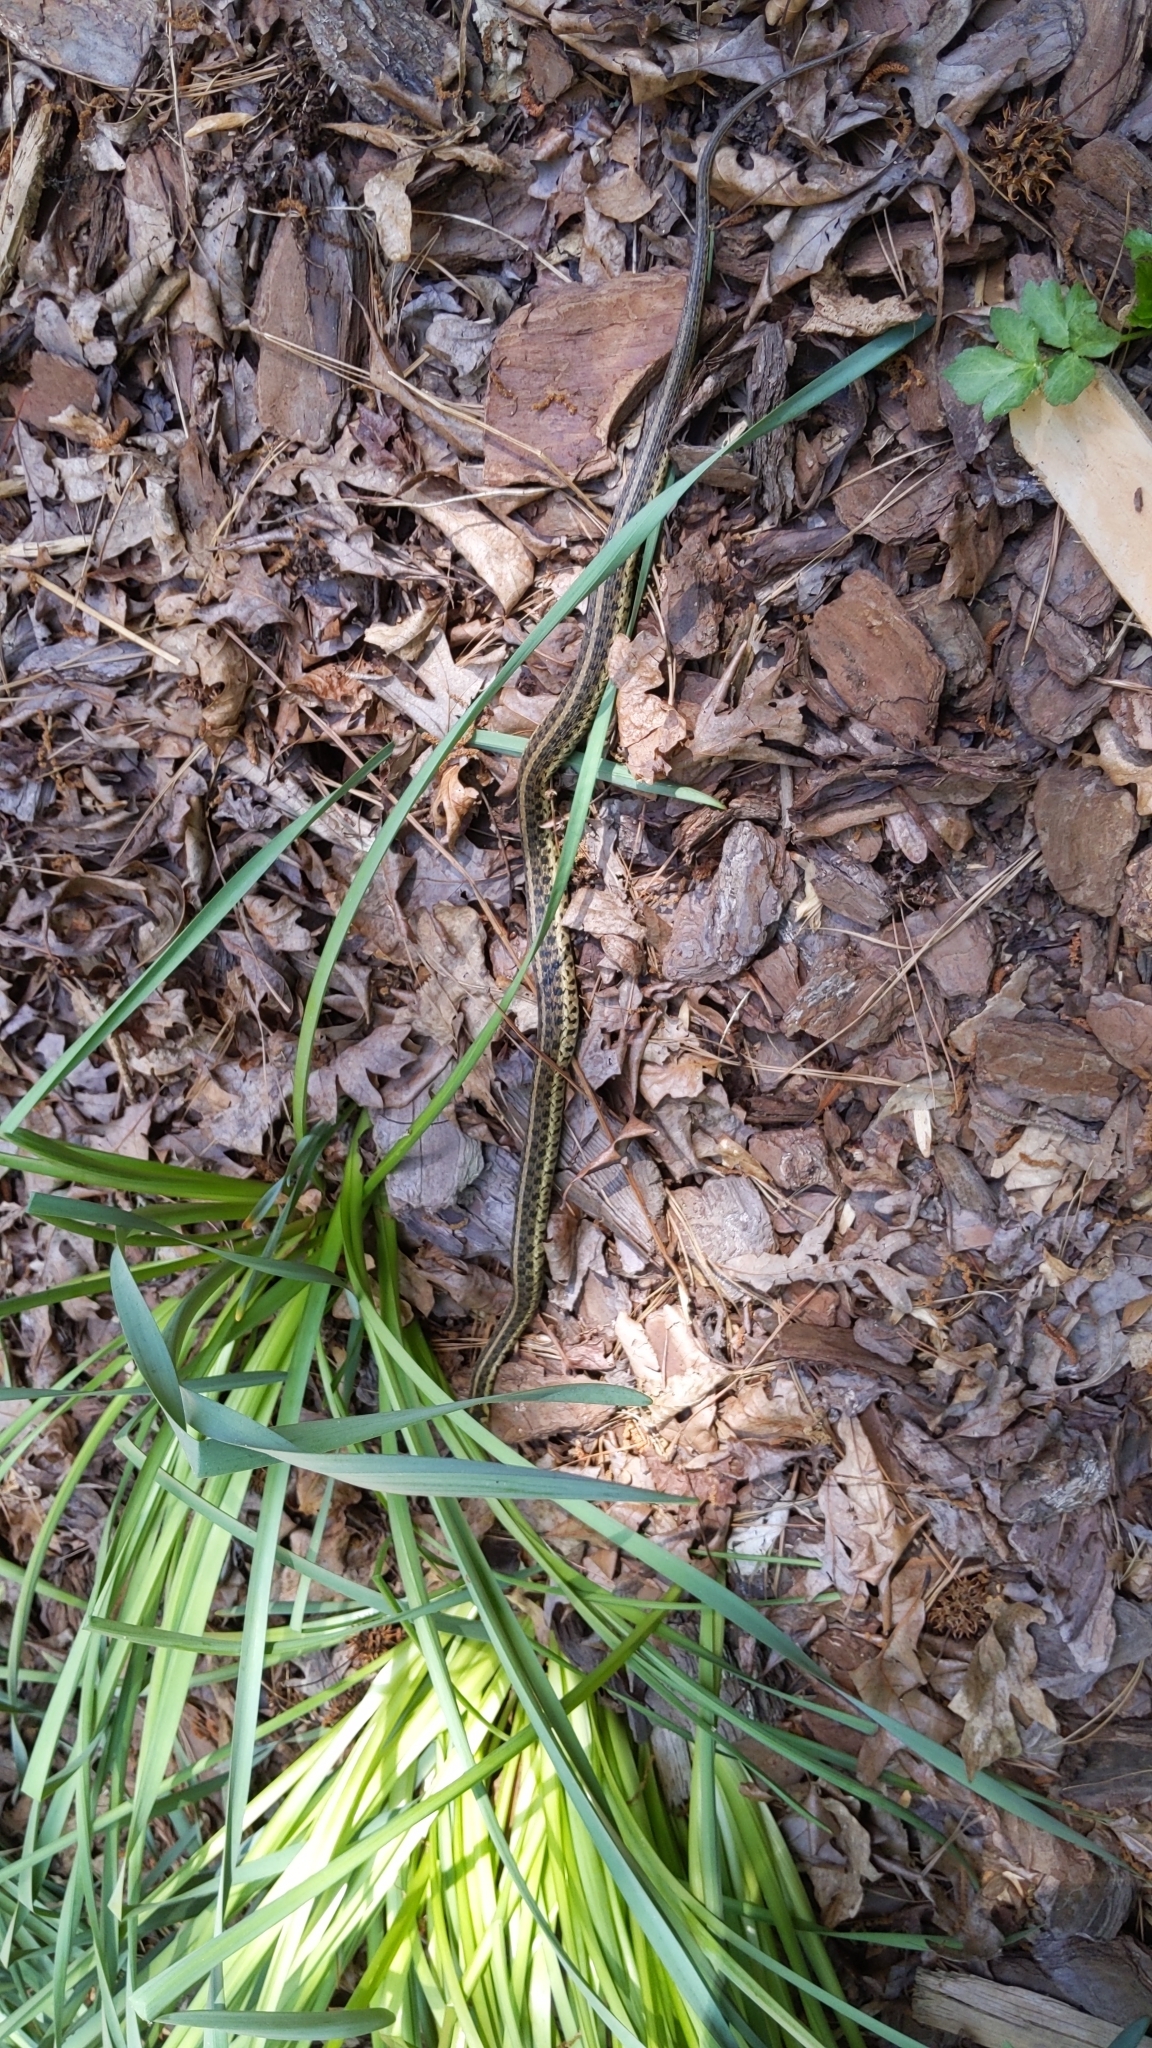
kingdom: Animalia
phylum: Chordata
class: Squamata
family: Colubridae
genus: Thamnophis
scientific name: Thamnophis sirtalis
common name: Common garter snake
